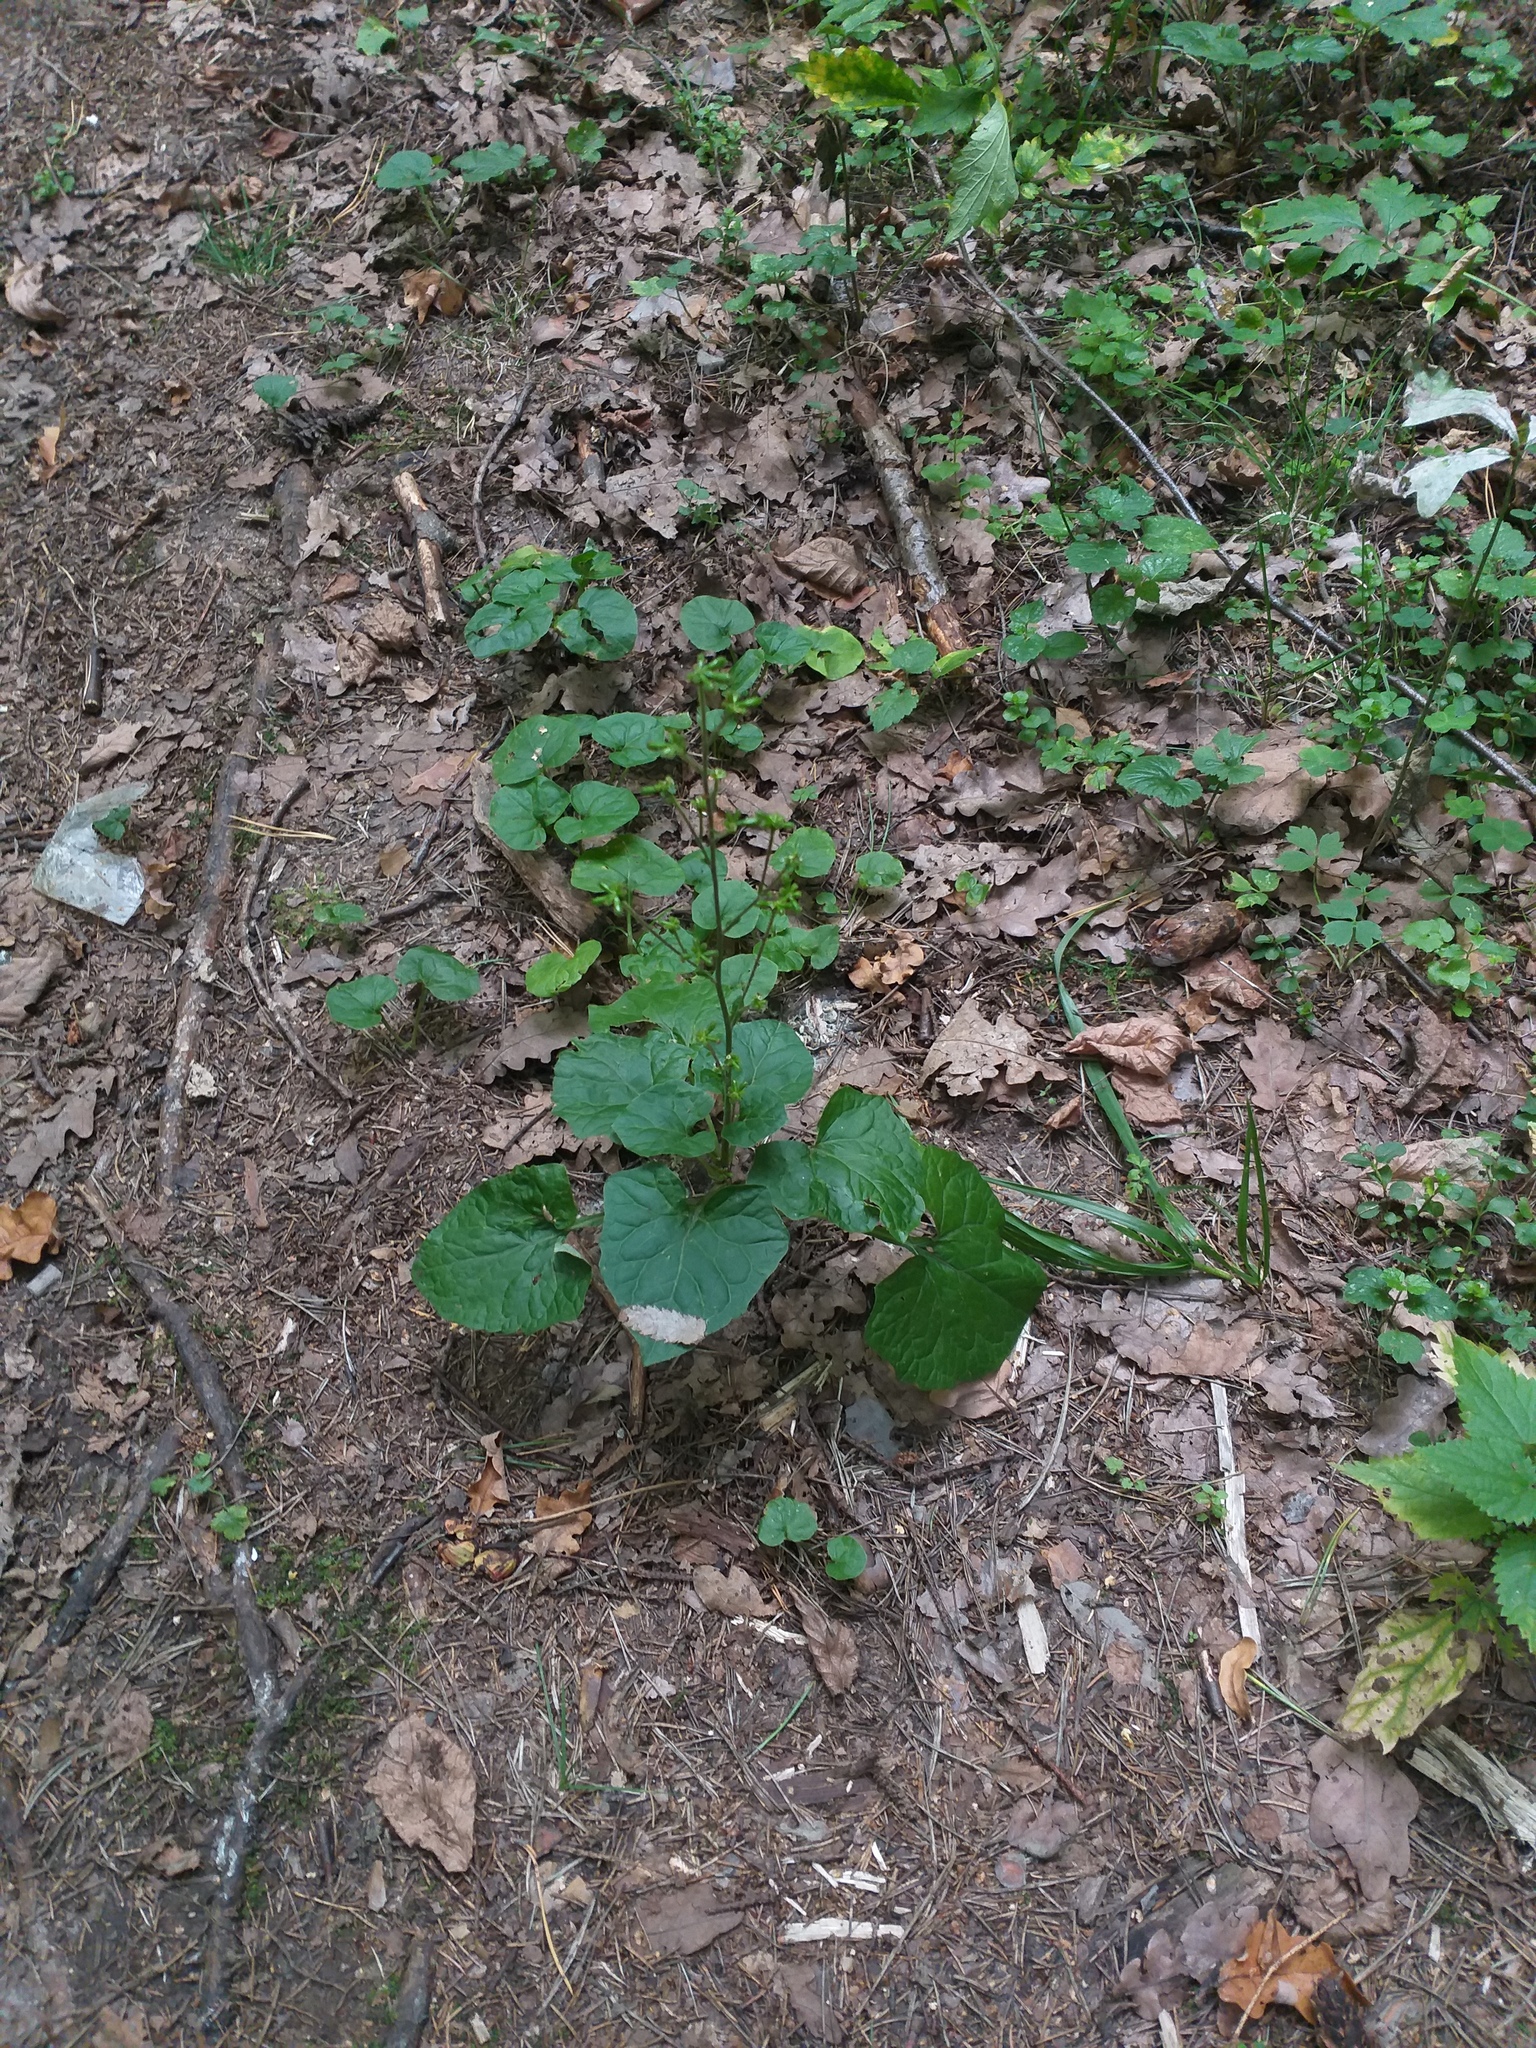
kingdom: Plantae
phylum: Tracheophyta
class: Magnoliopsida
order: Asterales
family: Asteraceae
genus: Adenocaulon
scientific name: Adenocaulon himalaicum
